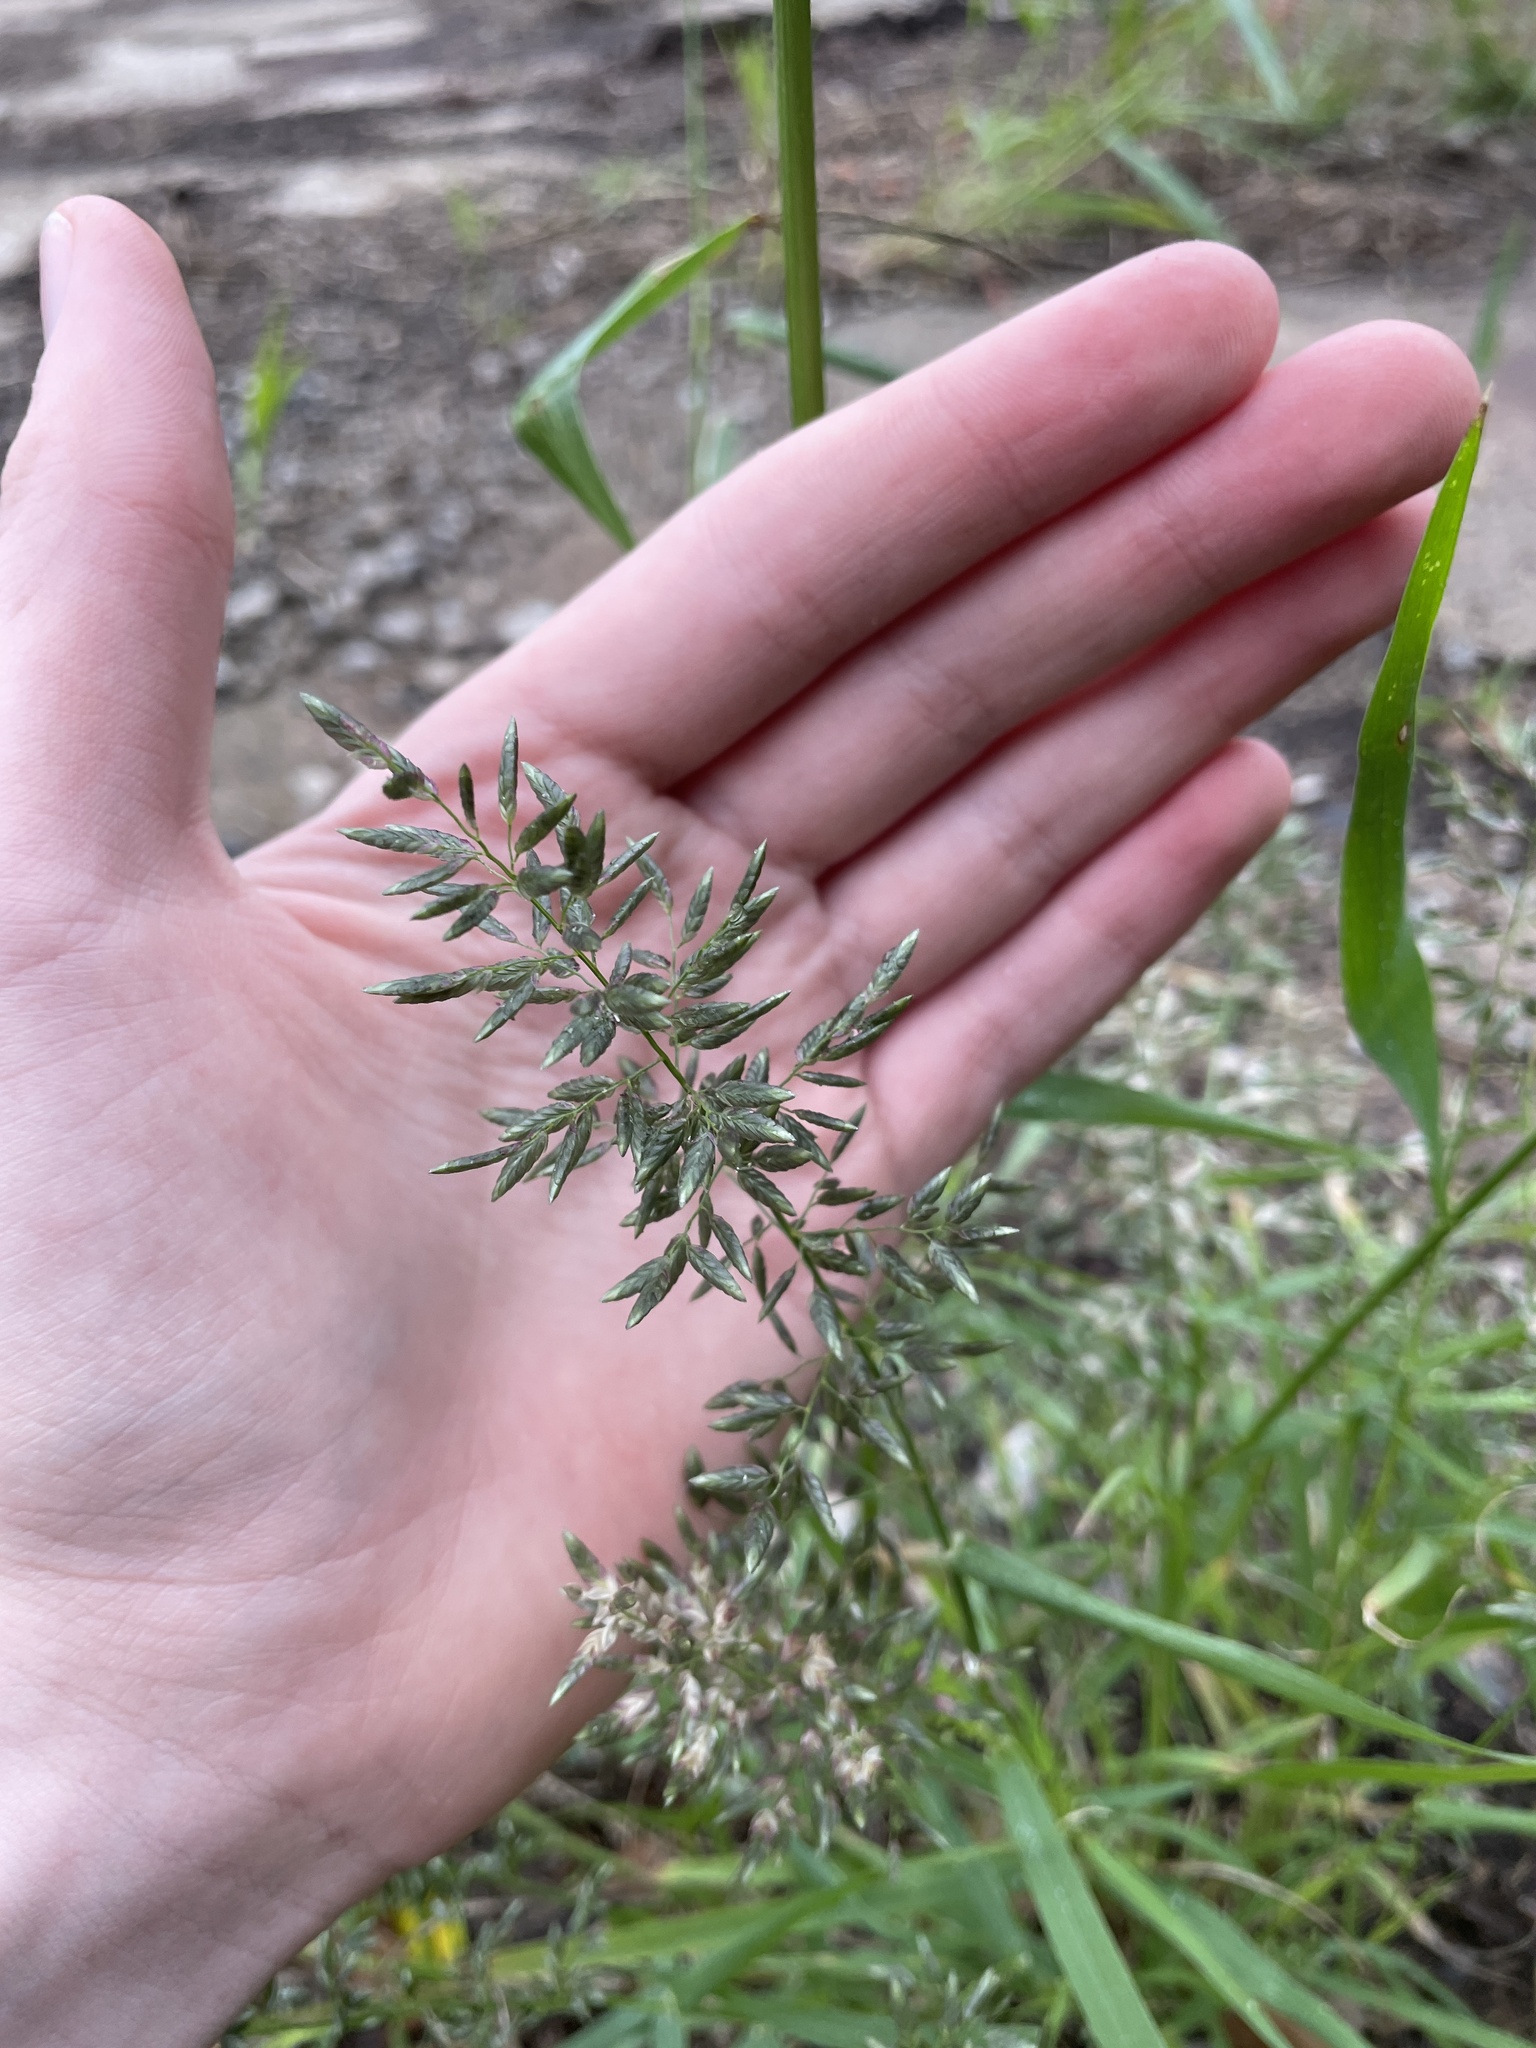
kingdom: Plantae
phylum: Tracheophyta
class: Liliopsida
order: Poales
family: Poaceae
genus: Eragrostis
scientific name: Eragrostis cilianensis
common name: Stinkgrass
